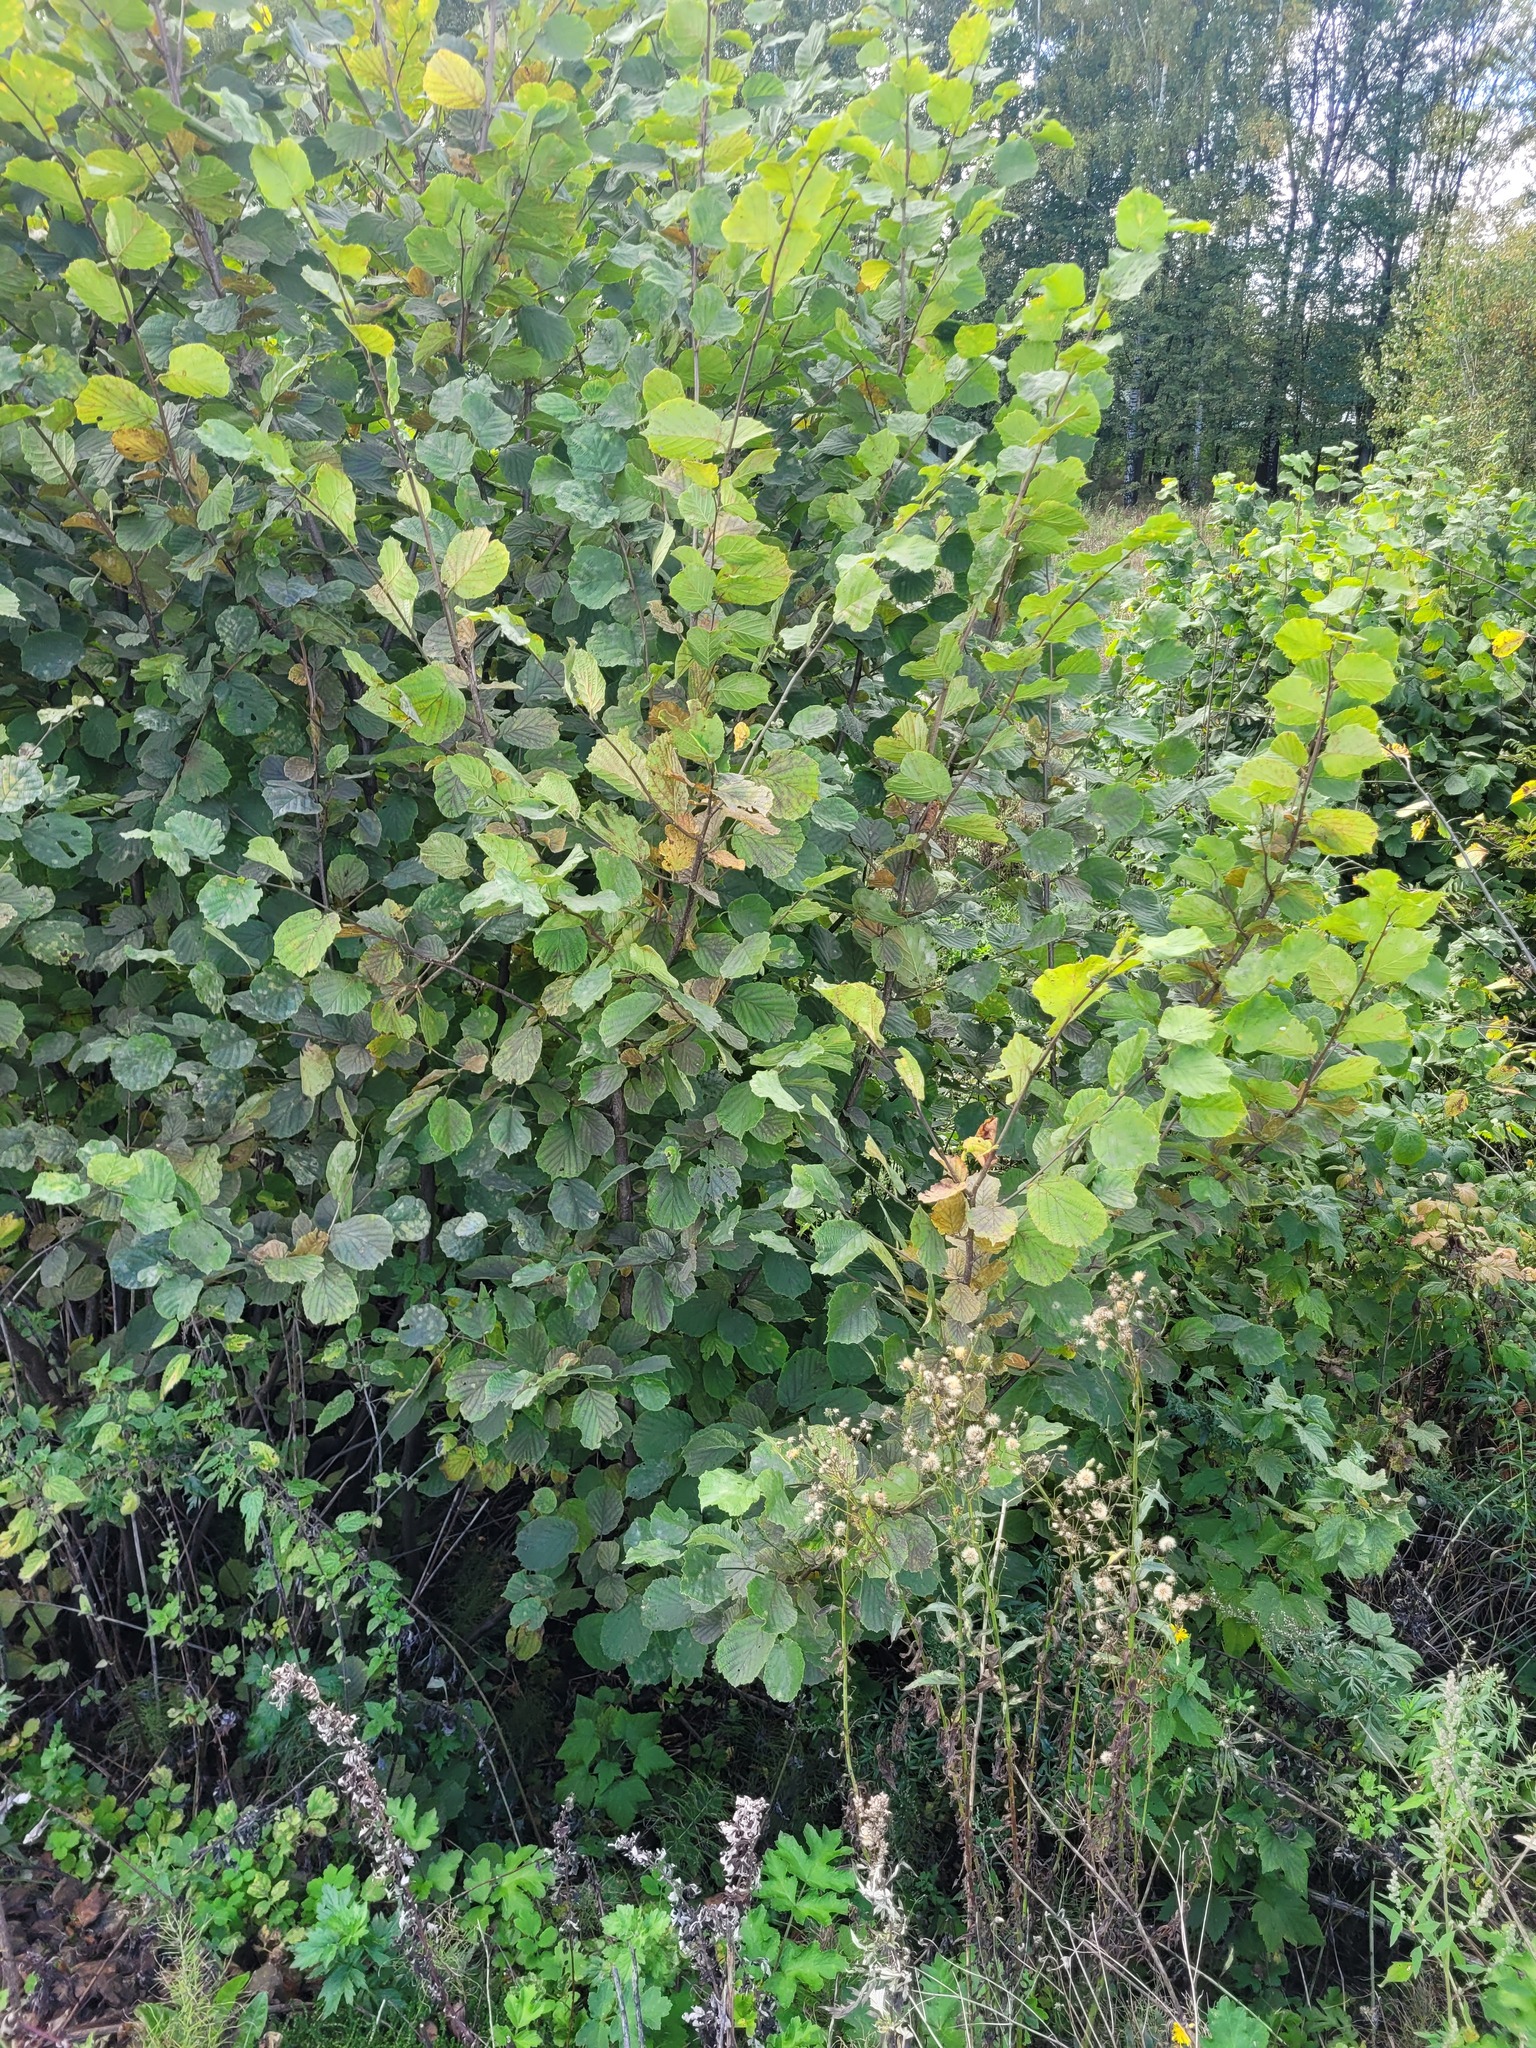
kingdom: Plantae
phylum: Tracheophyta
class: Magnoliopsida
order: Fagales
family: Betulaceae
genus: Corylus
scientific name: Corylus avellana
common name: European hazel
